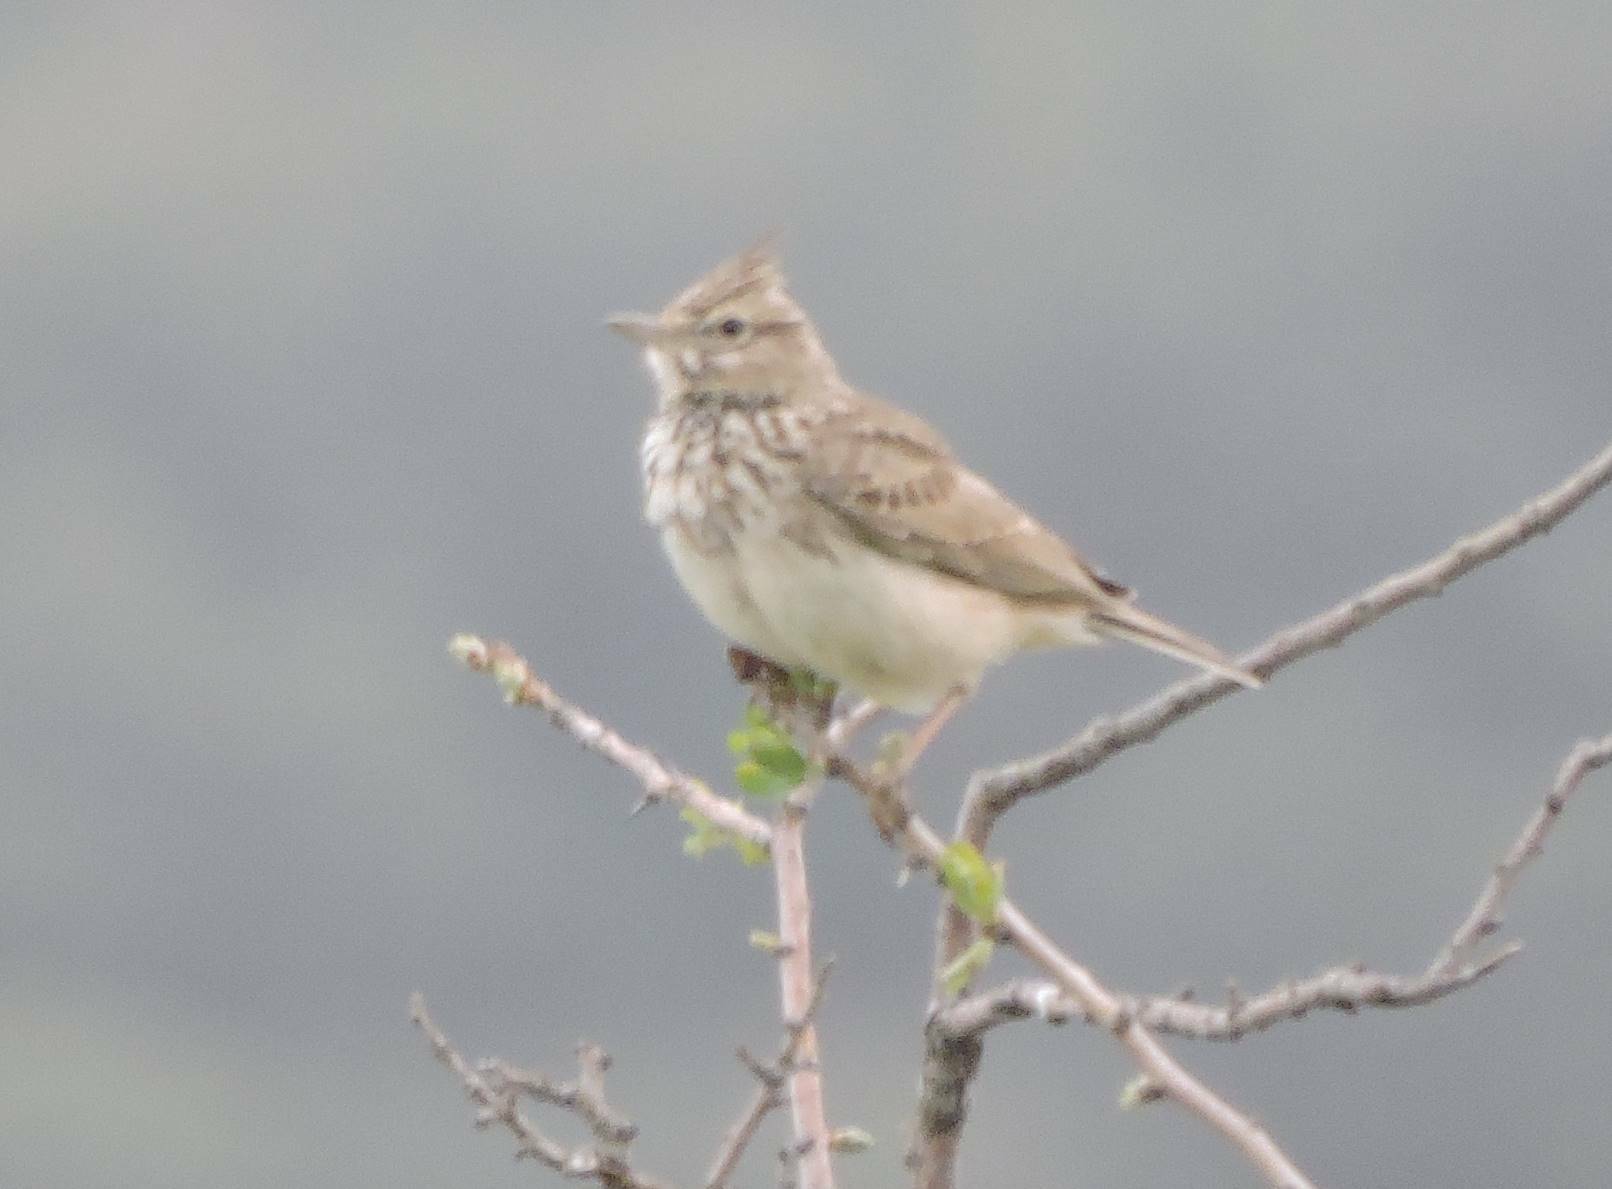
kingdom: Animalia
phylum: Chordata
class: Aves
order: Passeriformes
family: Alaudidae
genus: Galerida
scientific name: Galerida theklae
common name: Thekla lark
